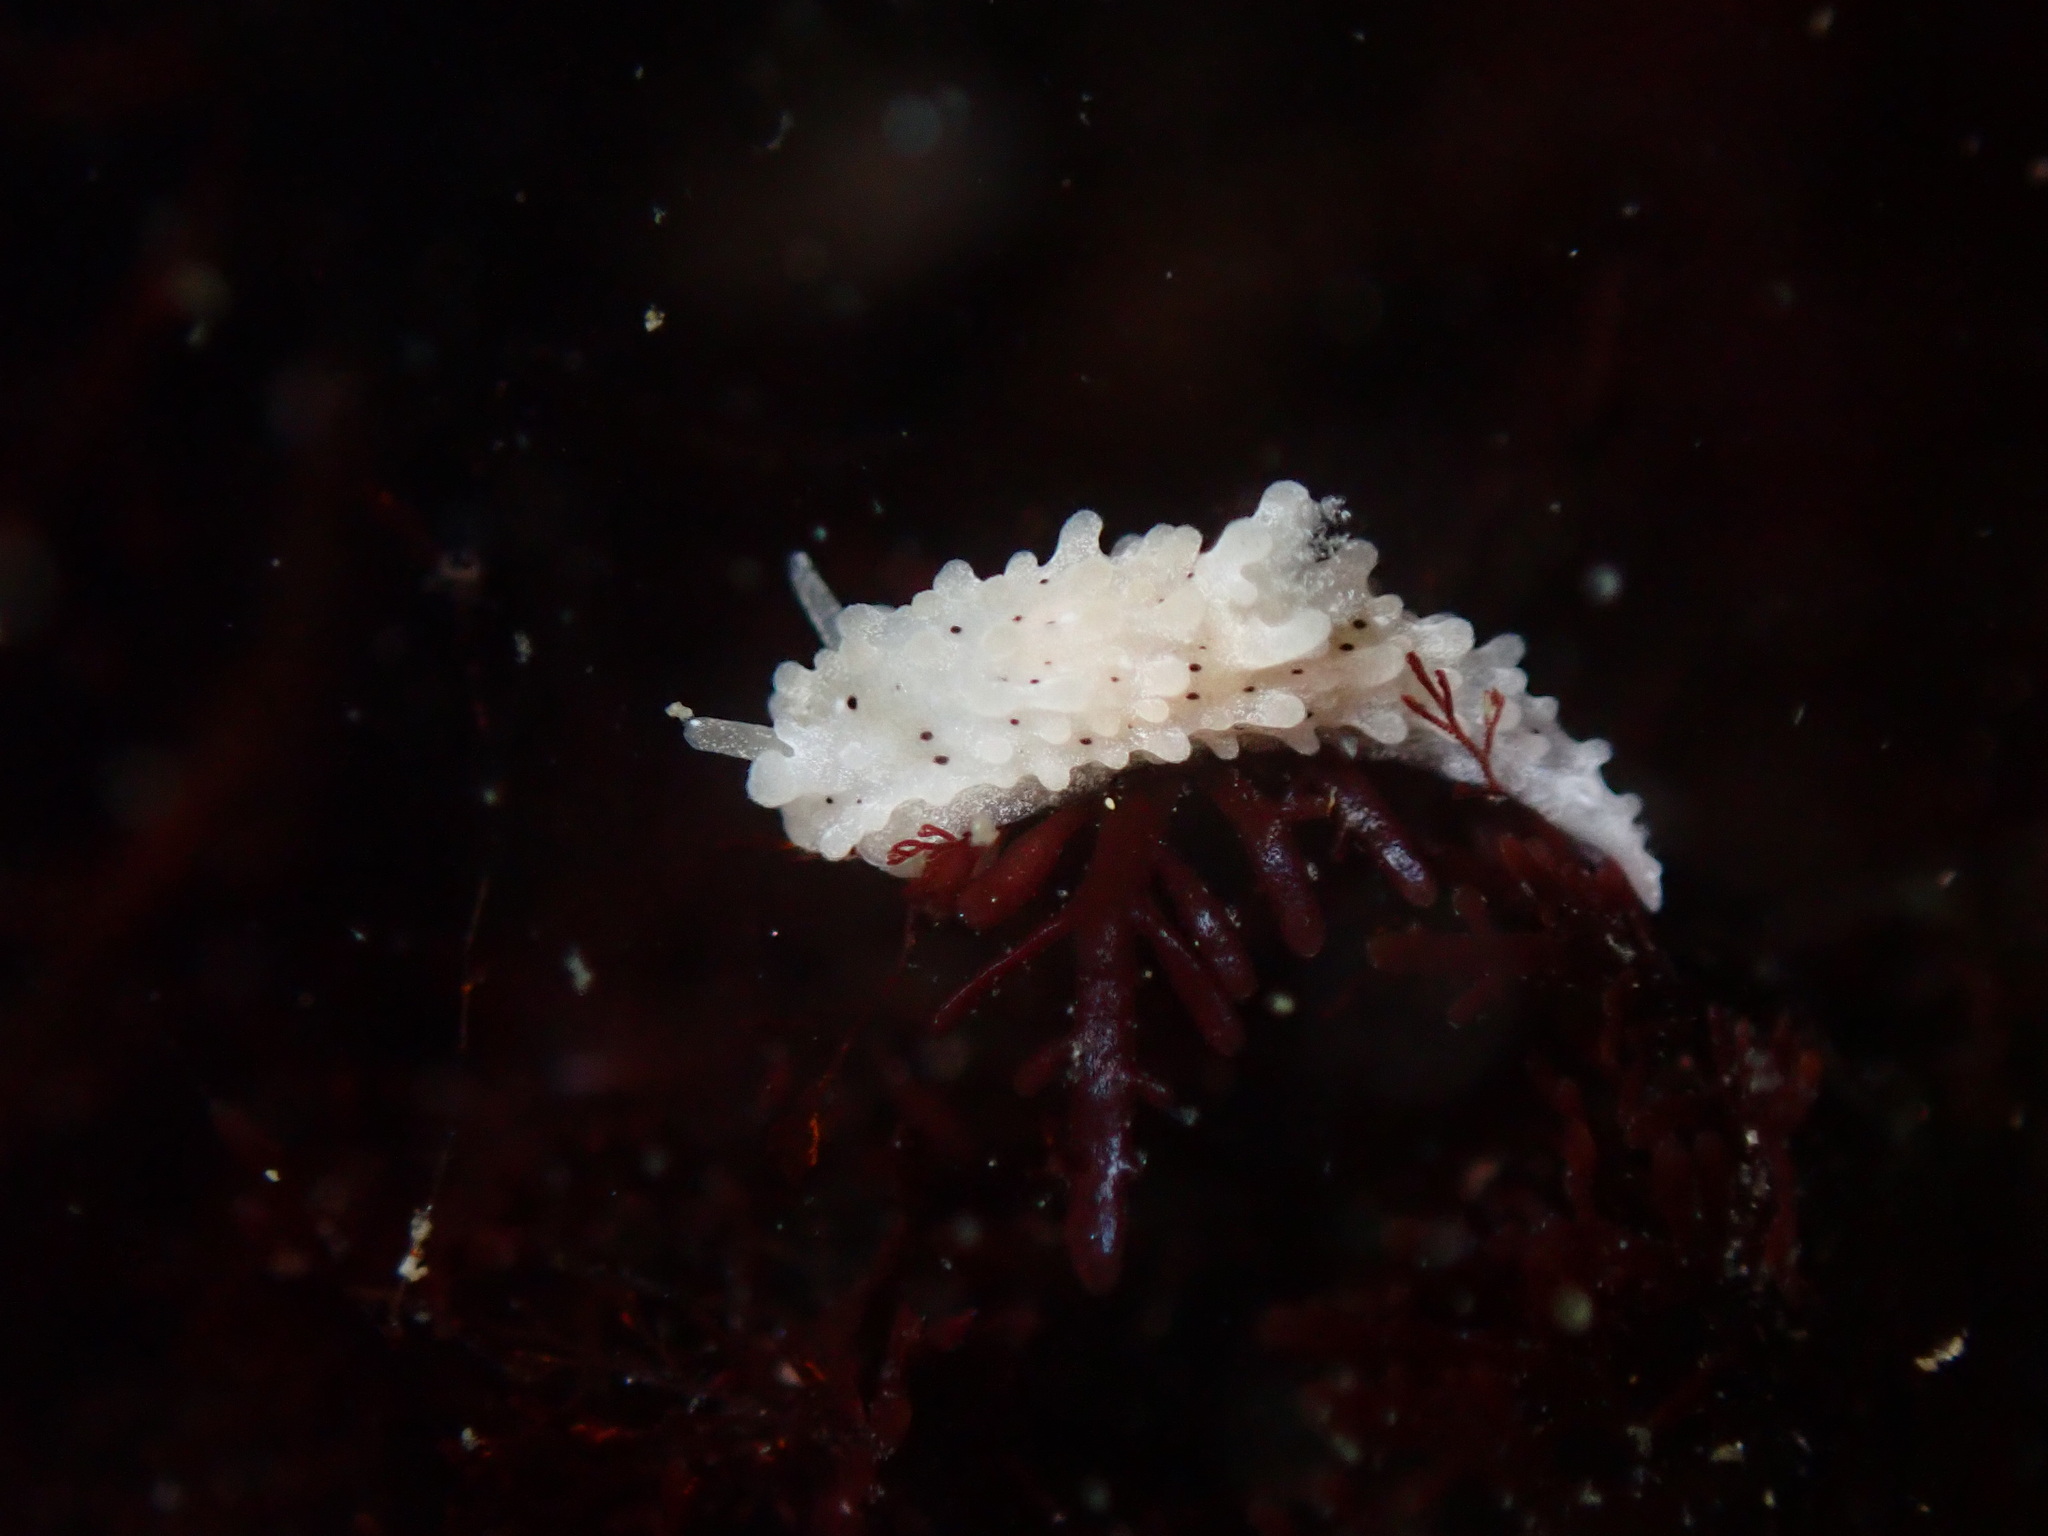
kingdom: Animalia
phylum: Mollusca
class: Gastropoda
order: Nudibranchia
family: Aegiridae
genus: Aegires
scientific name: Aegires albopunctatus
